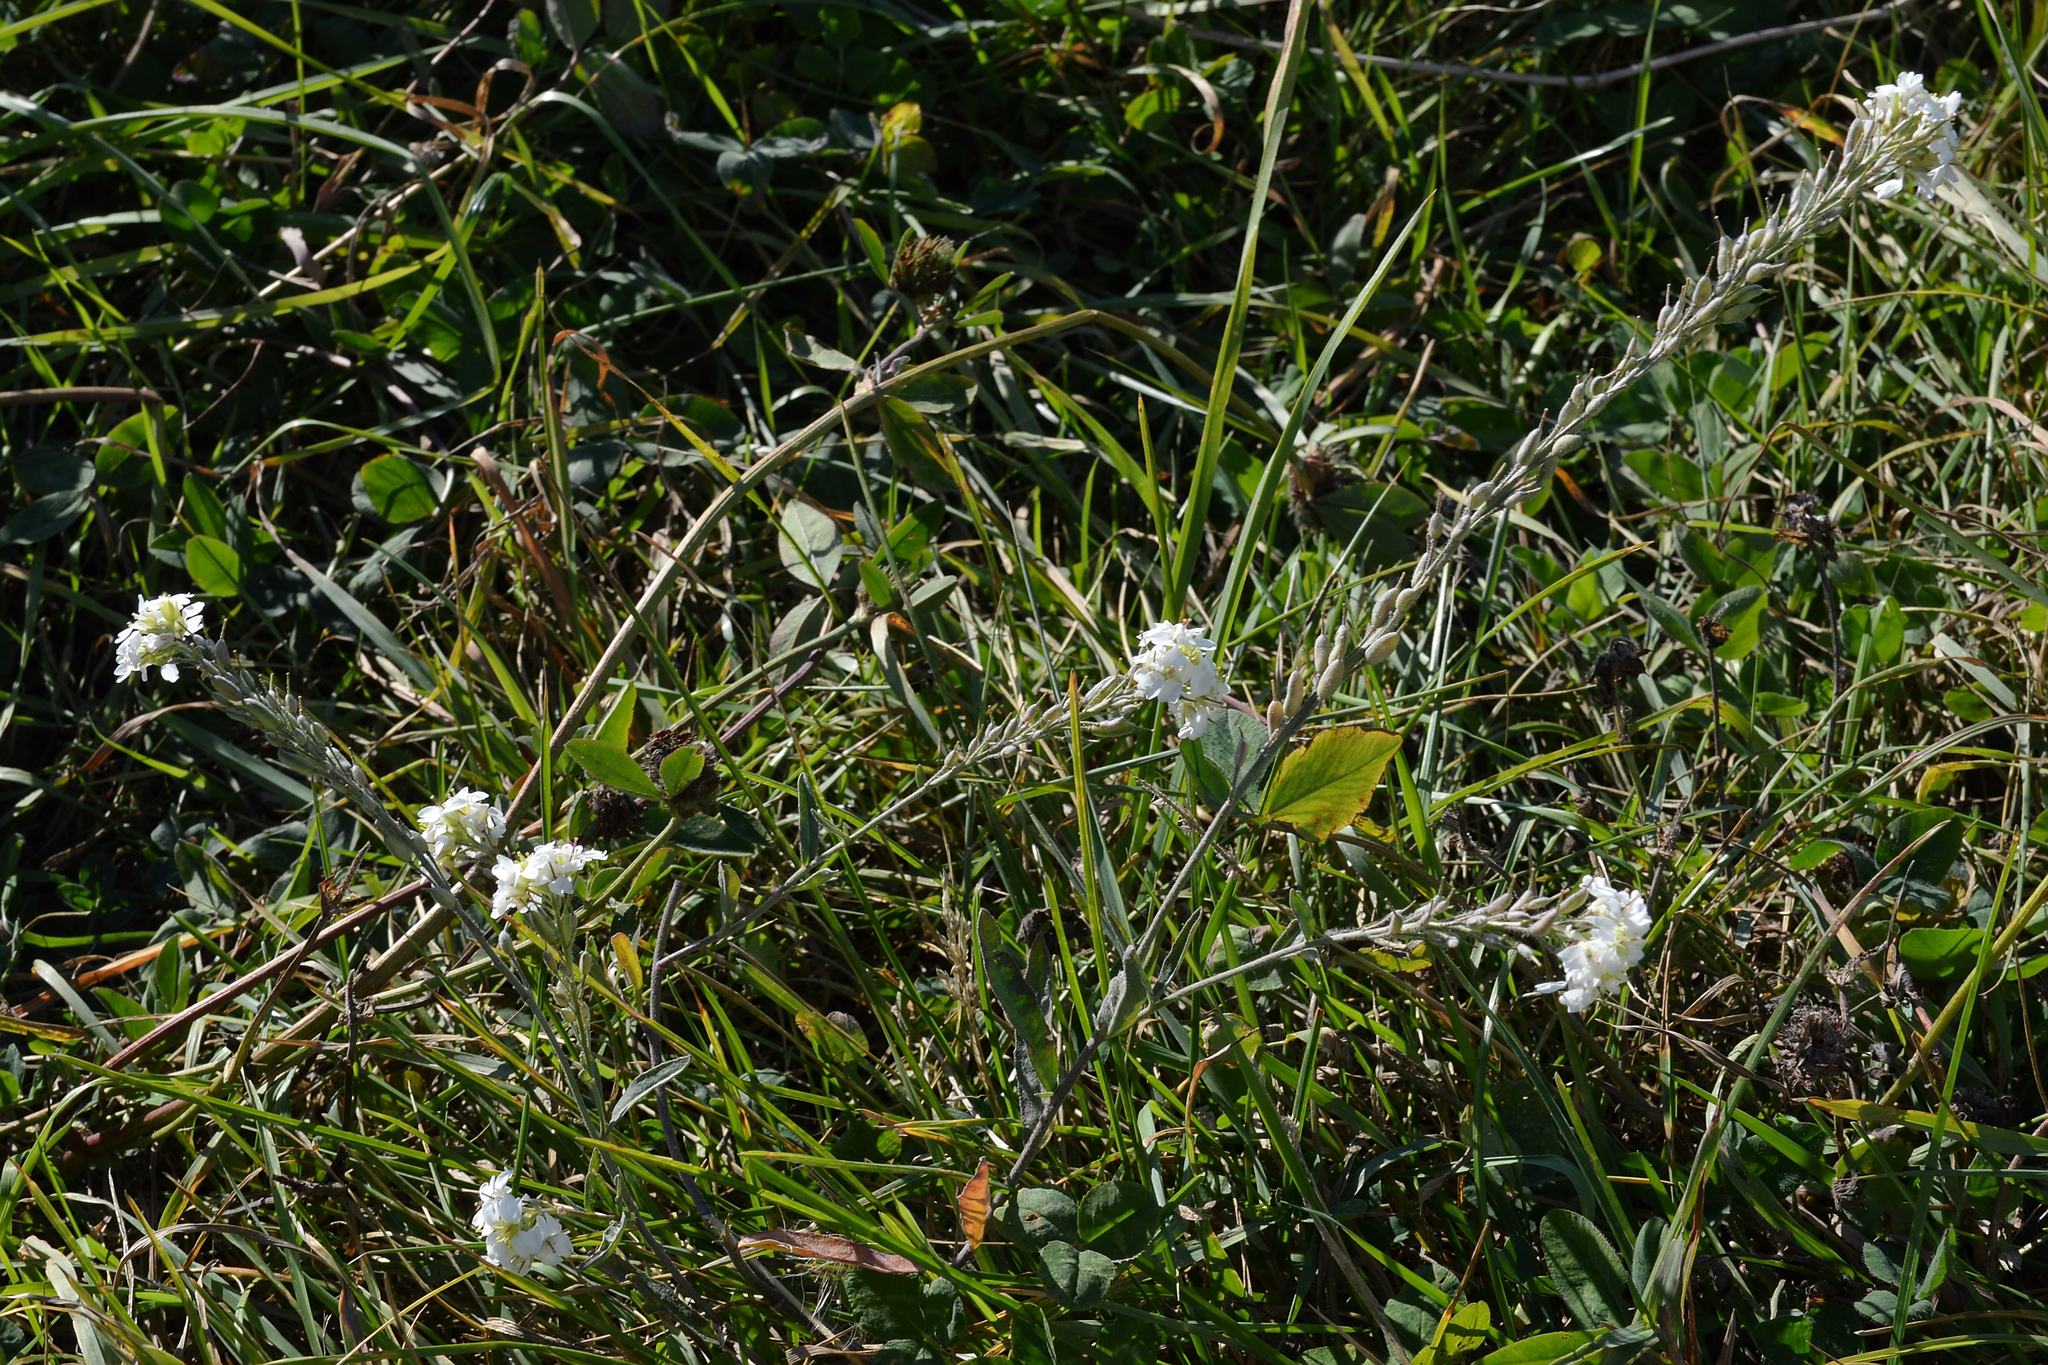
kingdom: Plantae
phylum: Tracheophyta
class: Magnoliopsida
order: Brassicales
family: Brassicaceae
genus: Berteroa
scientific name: Berteroa incana
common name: Hoary alison
